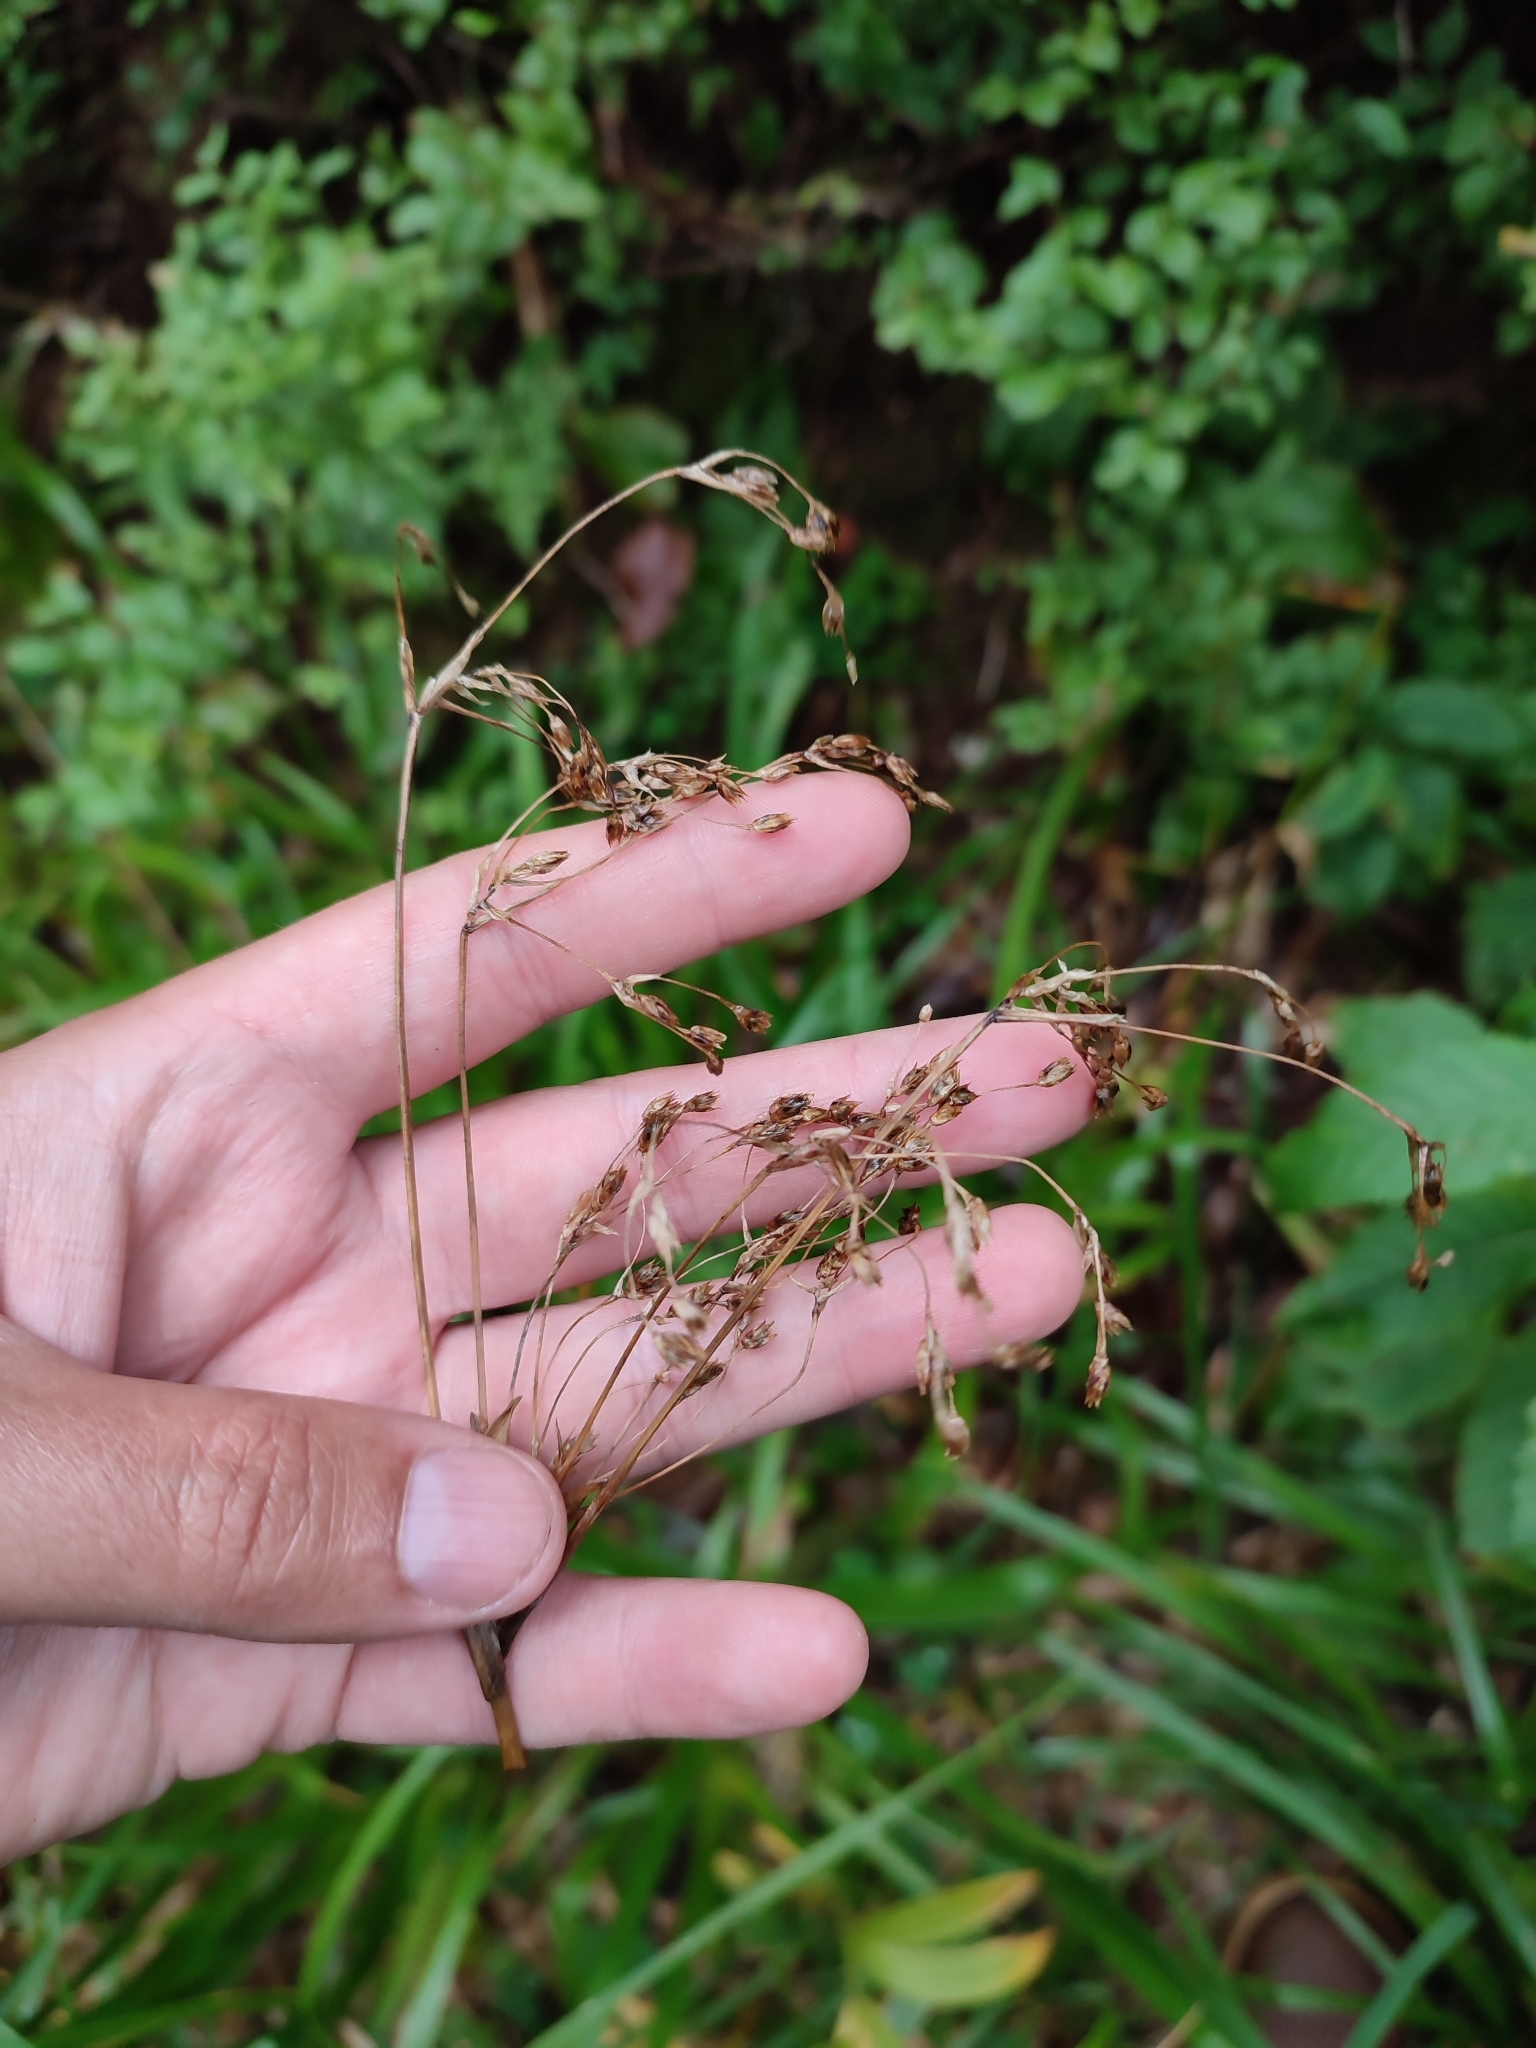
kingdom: Plantae
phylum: Tracheophyta
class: Liliopsida
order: Poales
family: Juncaceae
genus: Luzula
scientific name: Luzula sylvatica
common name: Great wood-rush
